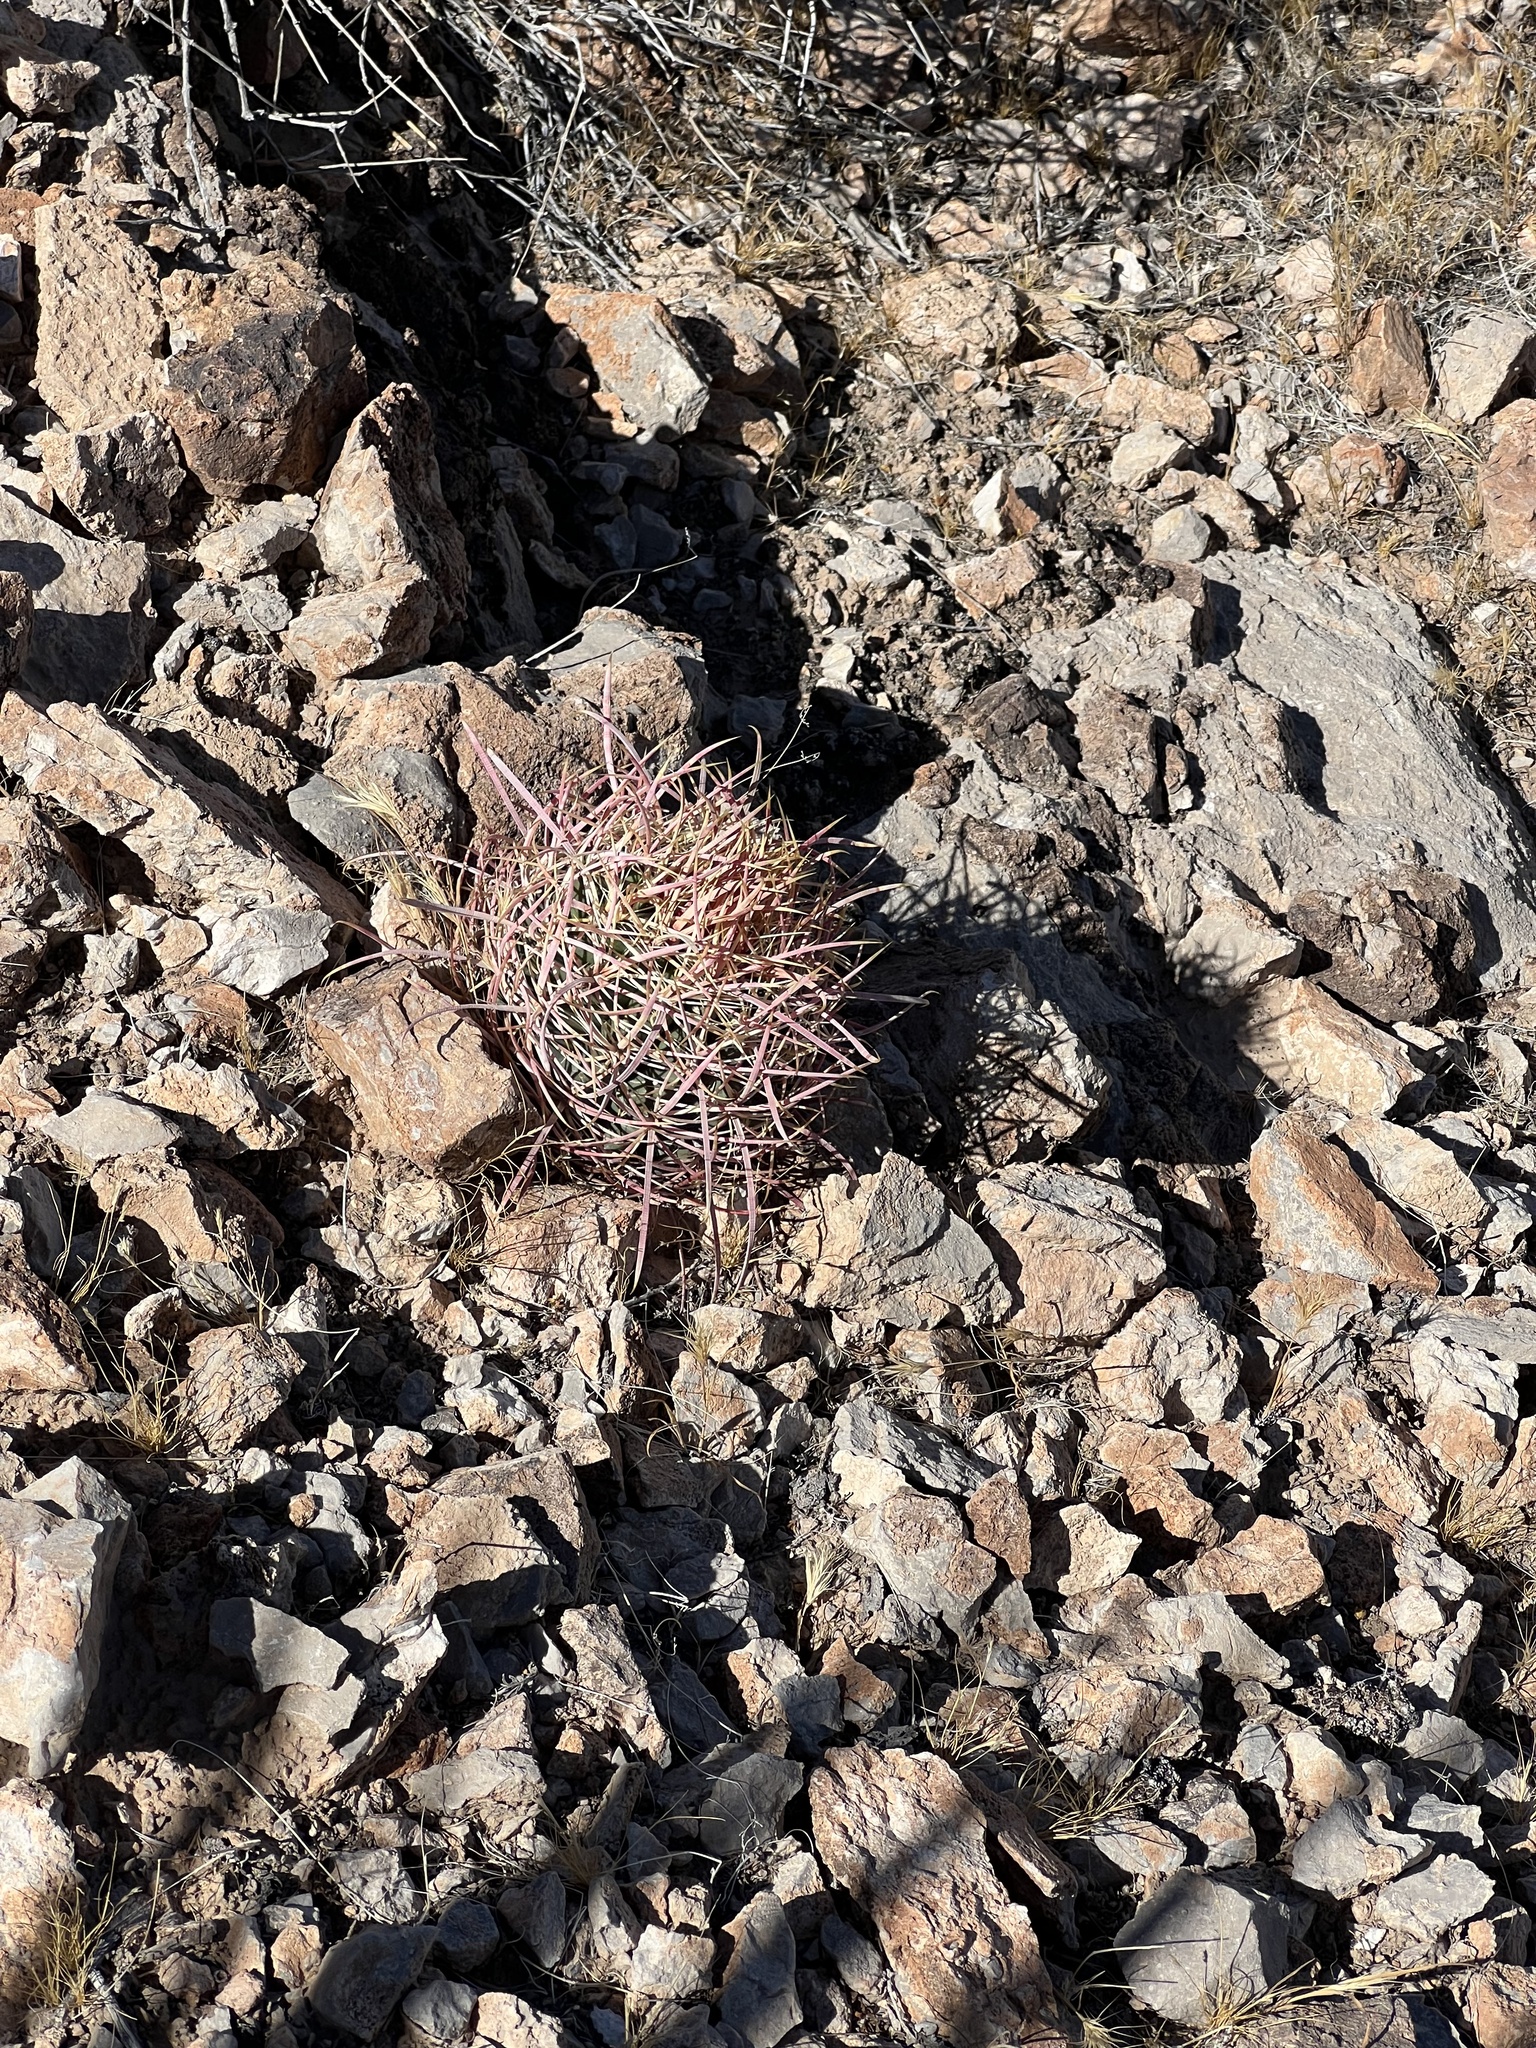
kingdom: Plantae
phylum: Tracheophyta
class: Magnoliopsida
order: Caryophyllales
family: Cactaceae
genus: Ferocactus
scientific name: Ferocactus cylindraceus
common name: California barrel cactus
